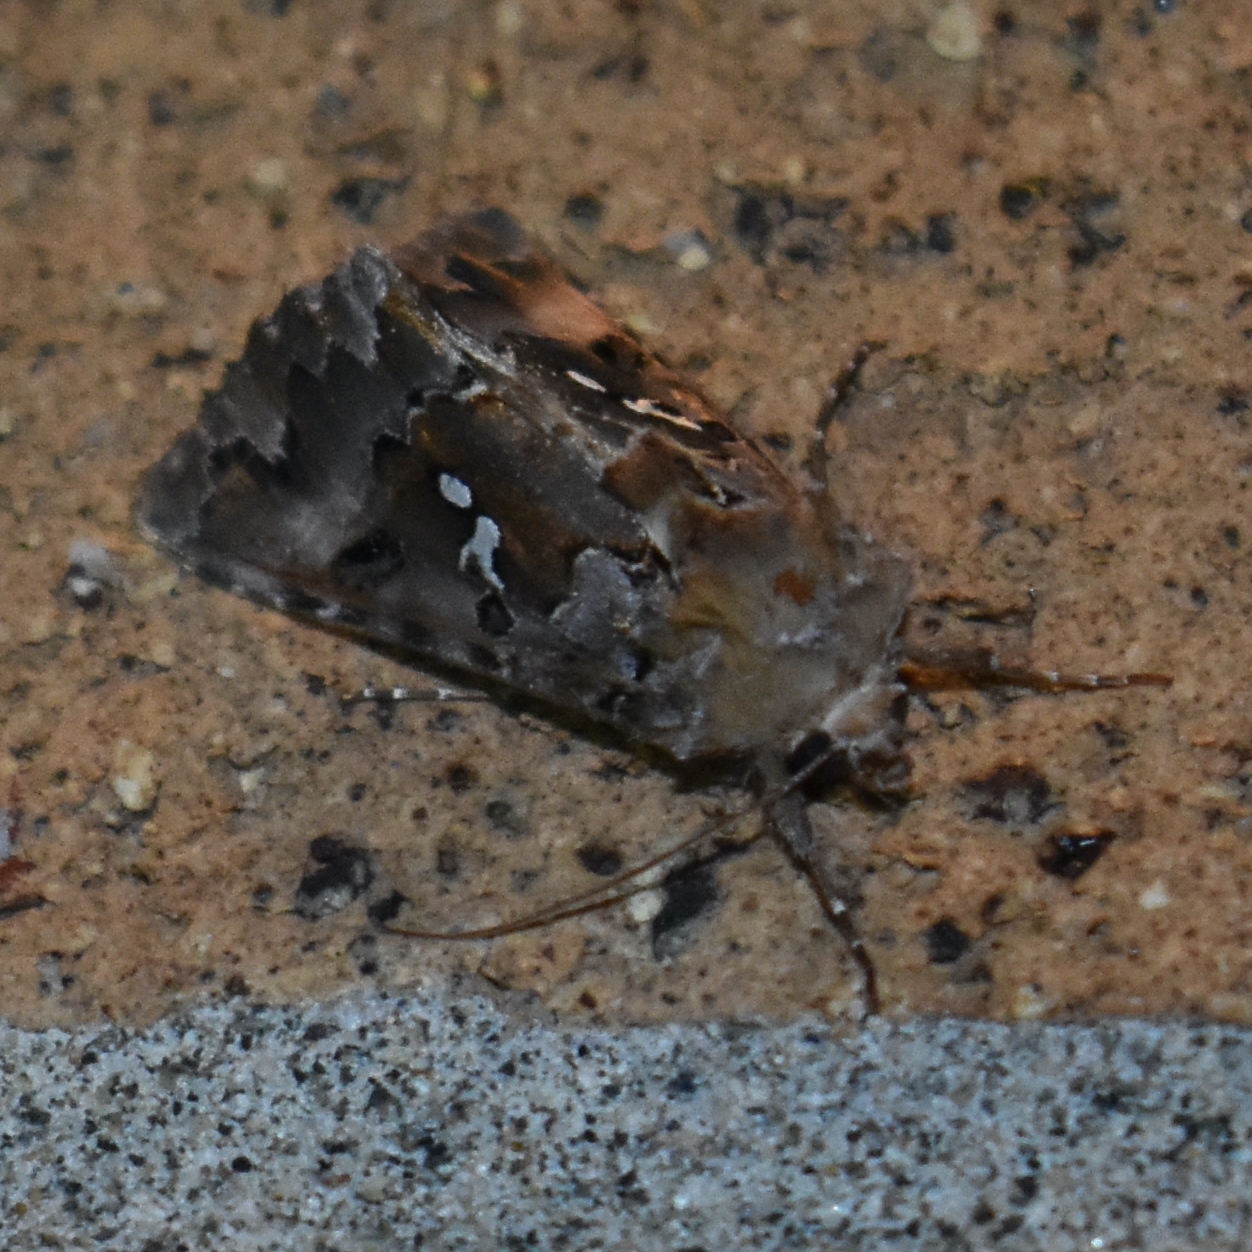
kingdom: Animalia
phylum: Arthropoda
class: Insecta
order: Lepidoptera
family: Noctuidae
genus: Autographa
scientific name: Autographa corusca
